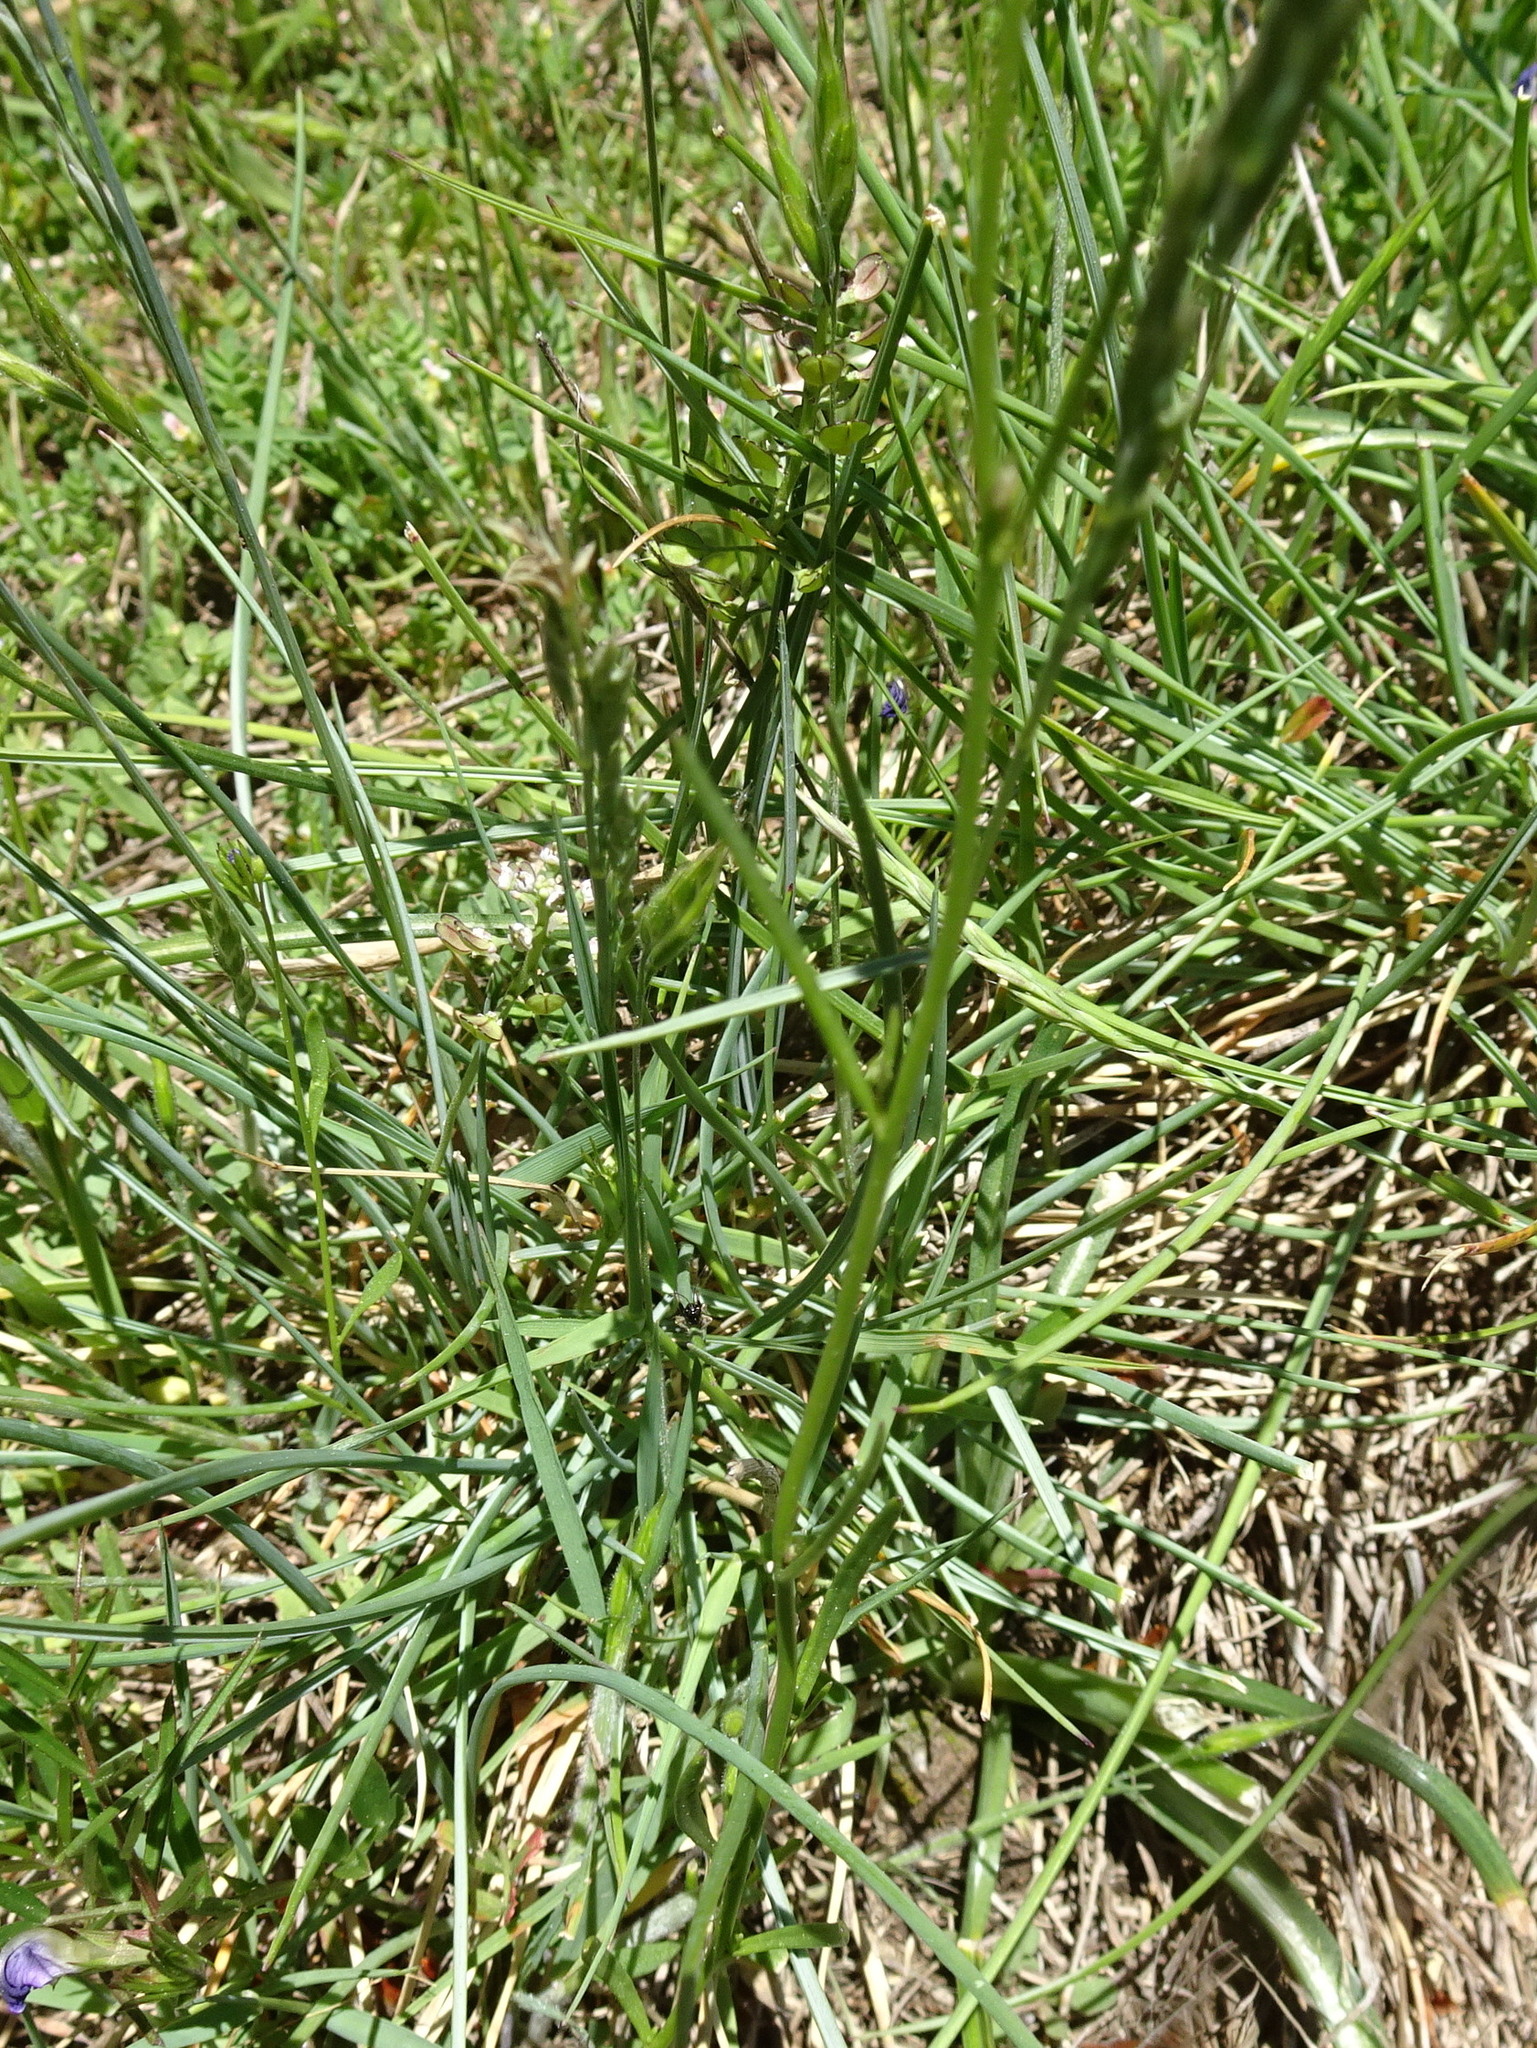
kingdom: Plantae
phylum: Tracheophyta
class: Magnoliopsida
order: Lamiales
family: Plantaginaceae
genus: Linaria
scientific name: Linaria pelisseriana
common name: Jersey toadflax
